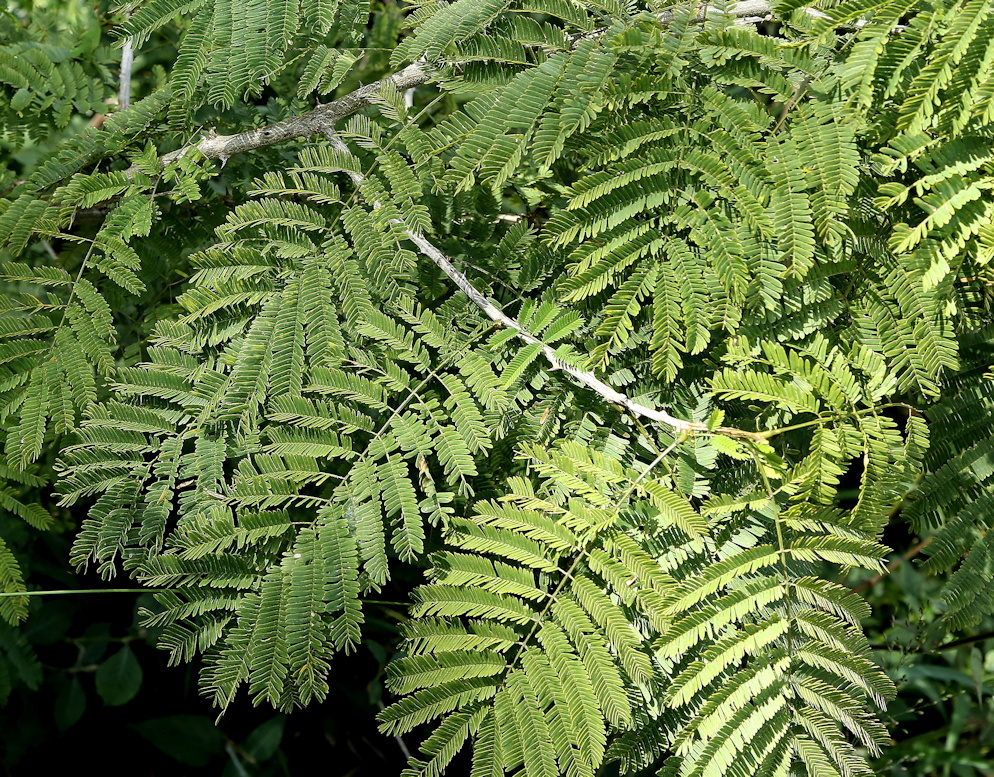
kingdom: Plantae
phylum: Tracheophyta
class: Magnoliopsida
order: Fabales
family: Fabaceae
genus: Senegalia
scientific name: Senegalia schweinfurthii
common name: River climbing acacia
